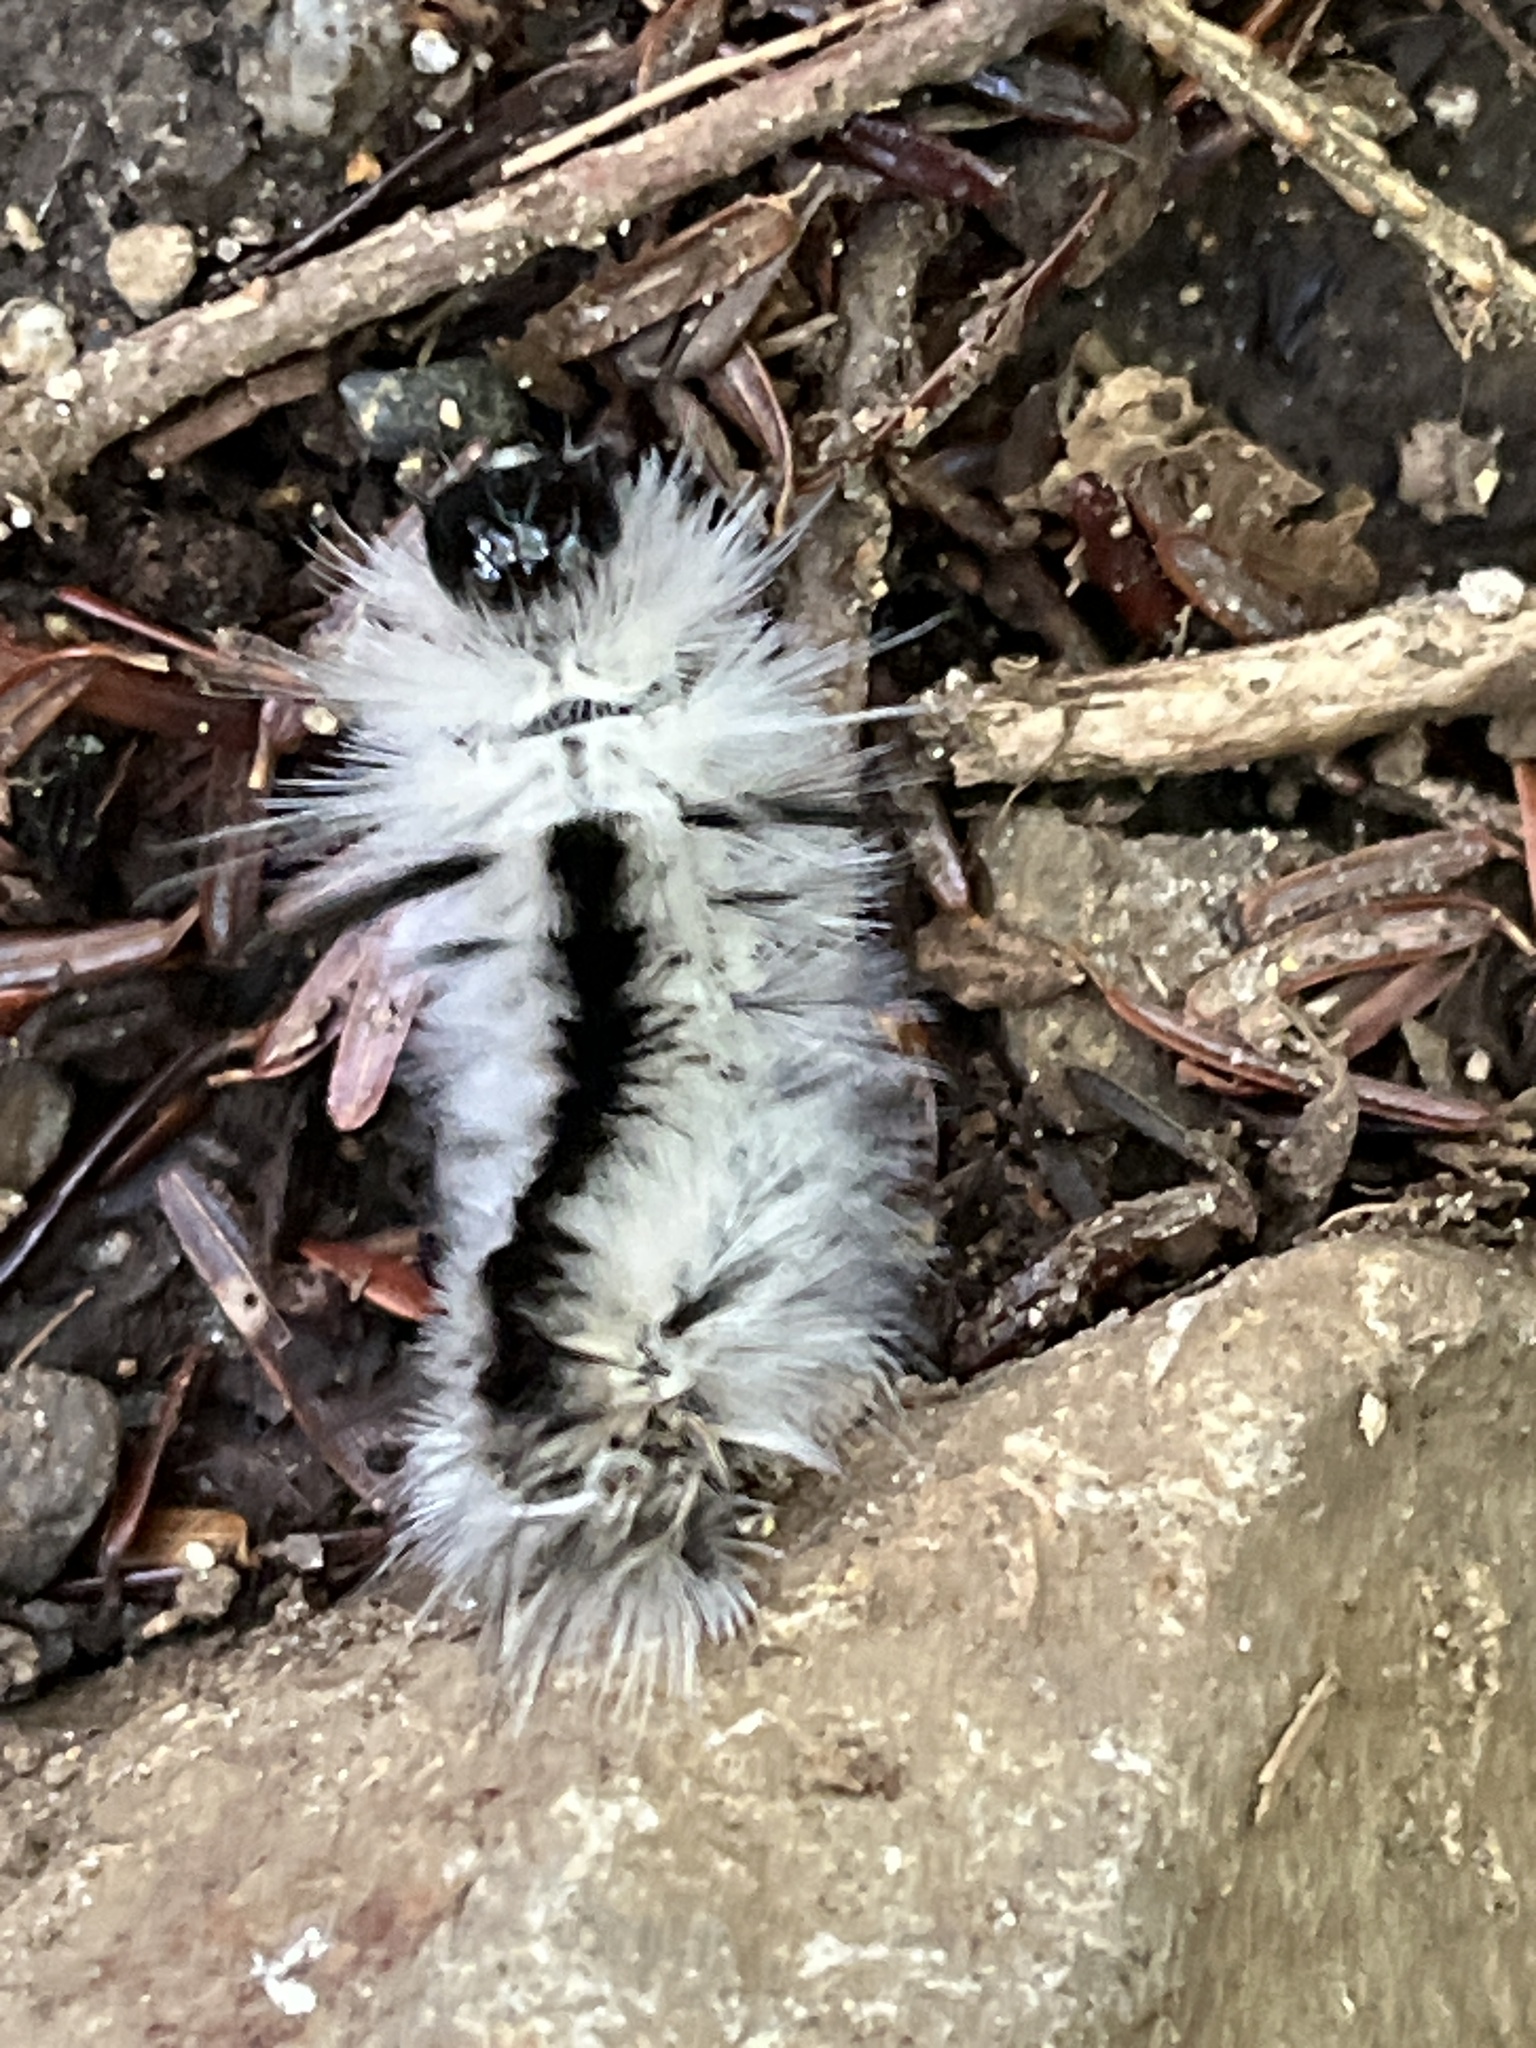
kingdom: Animalia
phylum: Arthropoda
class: Insecta
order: Lepidoptera
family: Erebidae
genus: Lophocampa
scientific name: Lophocampa caryae
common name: Hickory tussock moth
